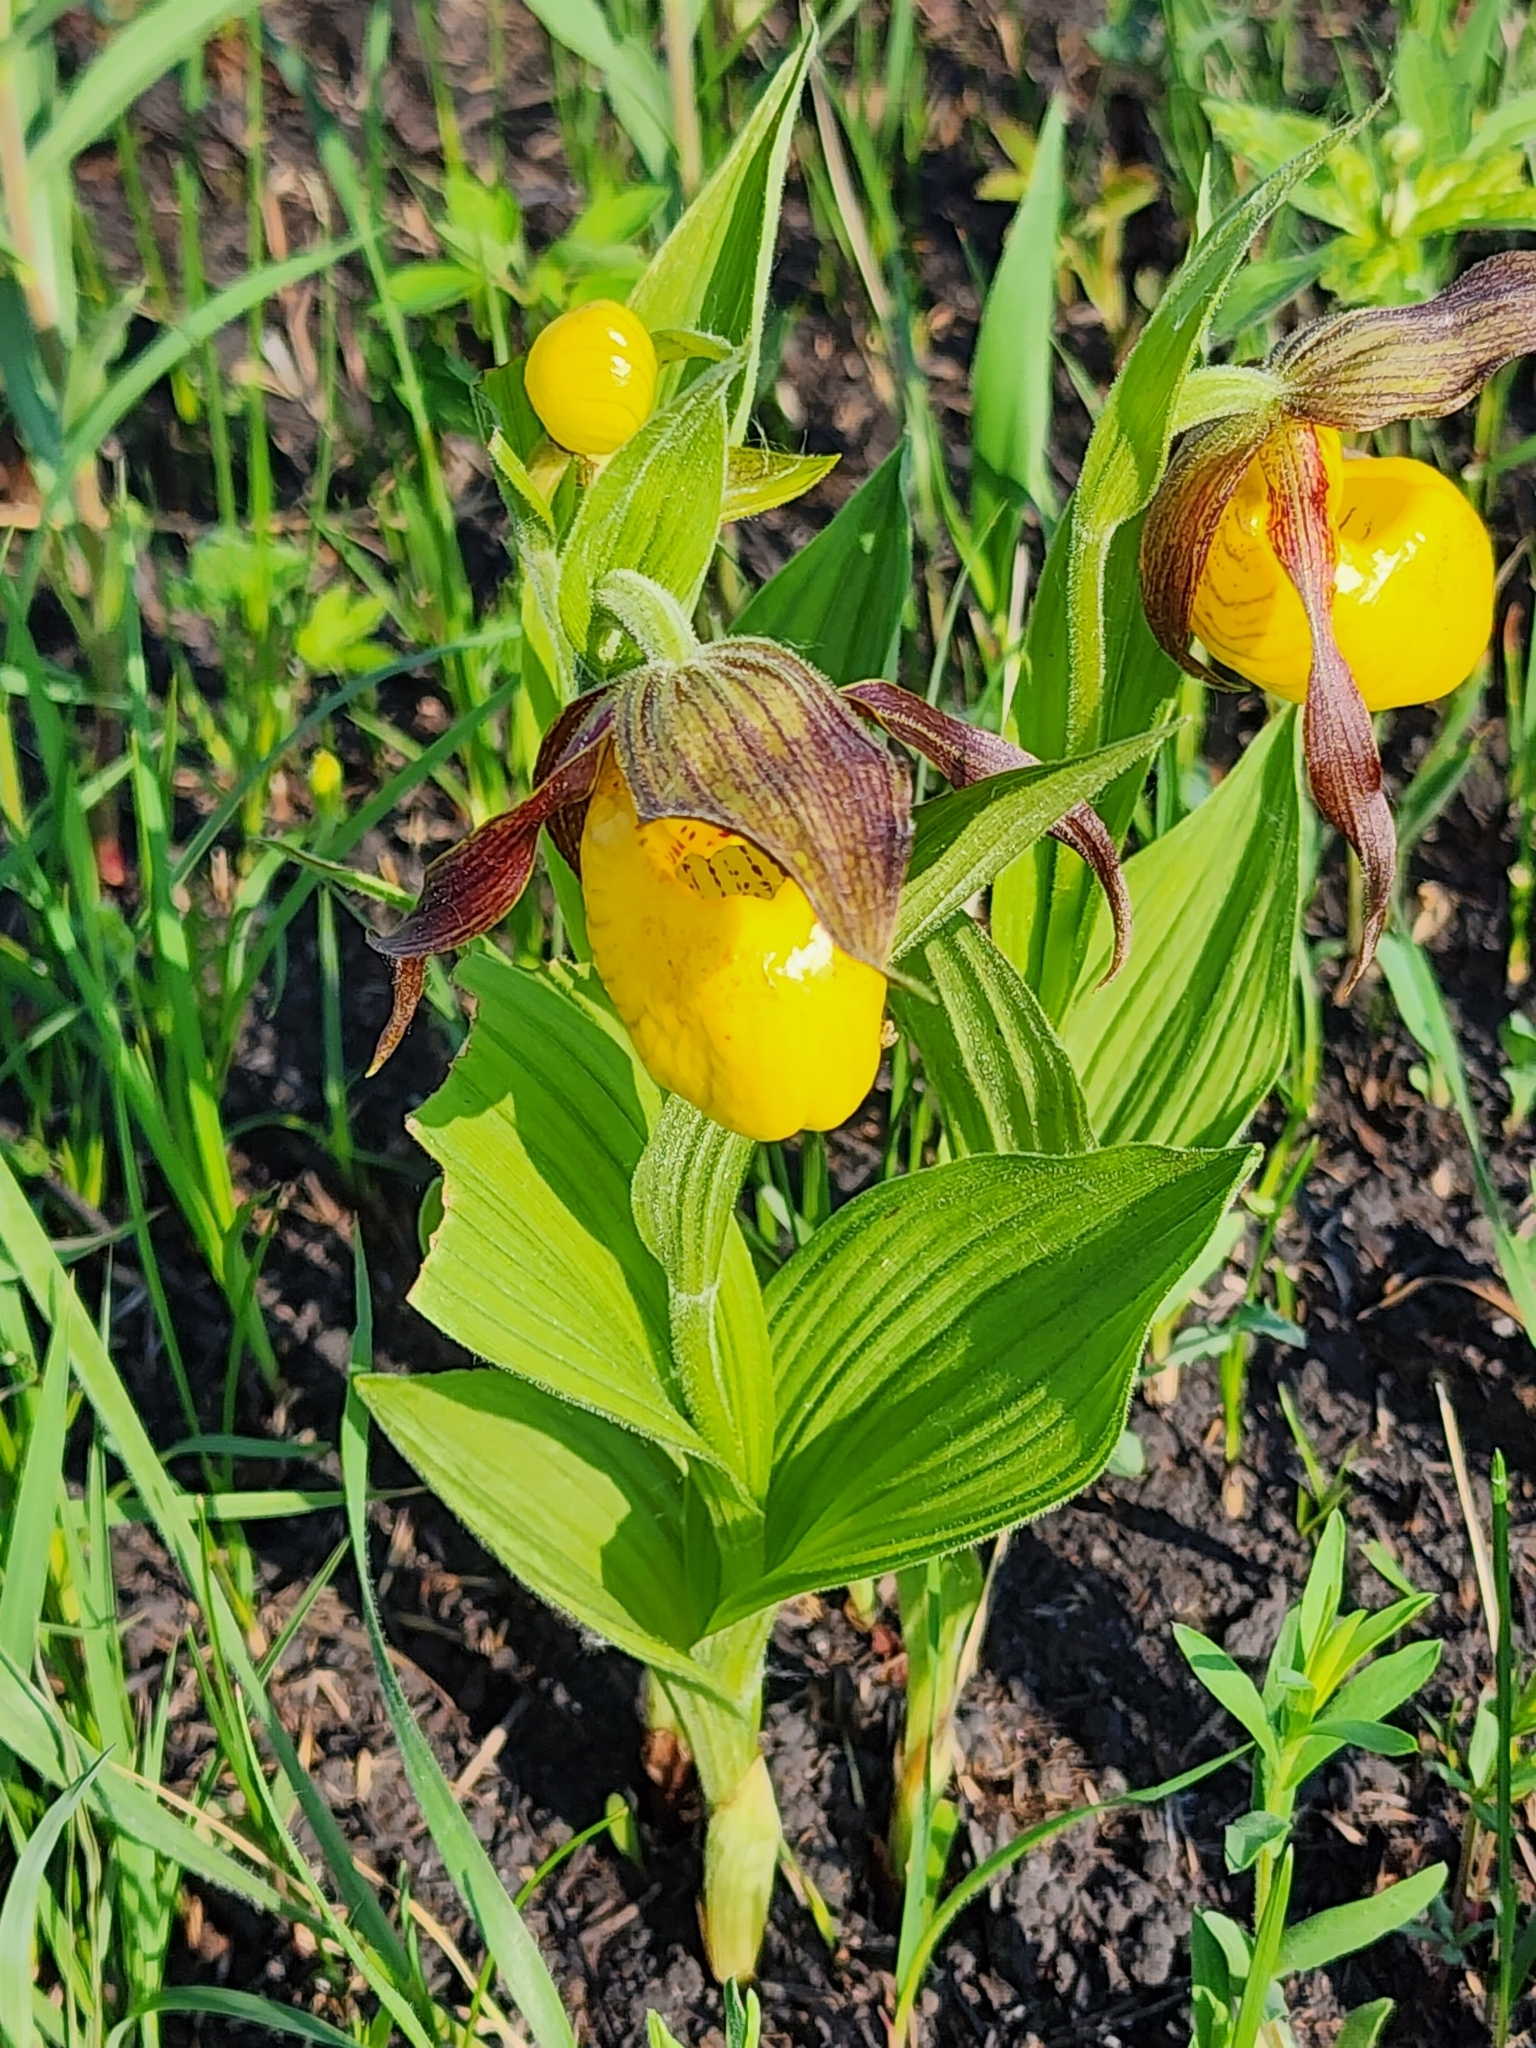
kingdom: Plantae
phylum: Tracheophyta
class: Liliopsida
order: Asparagales
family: Orchidaceae
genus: Cypripedium
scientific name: Cypripedium parviflorum
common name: American yellow lady's-slipper
